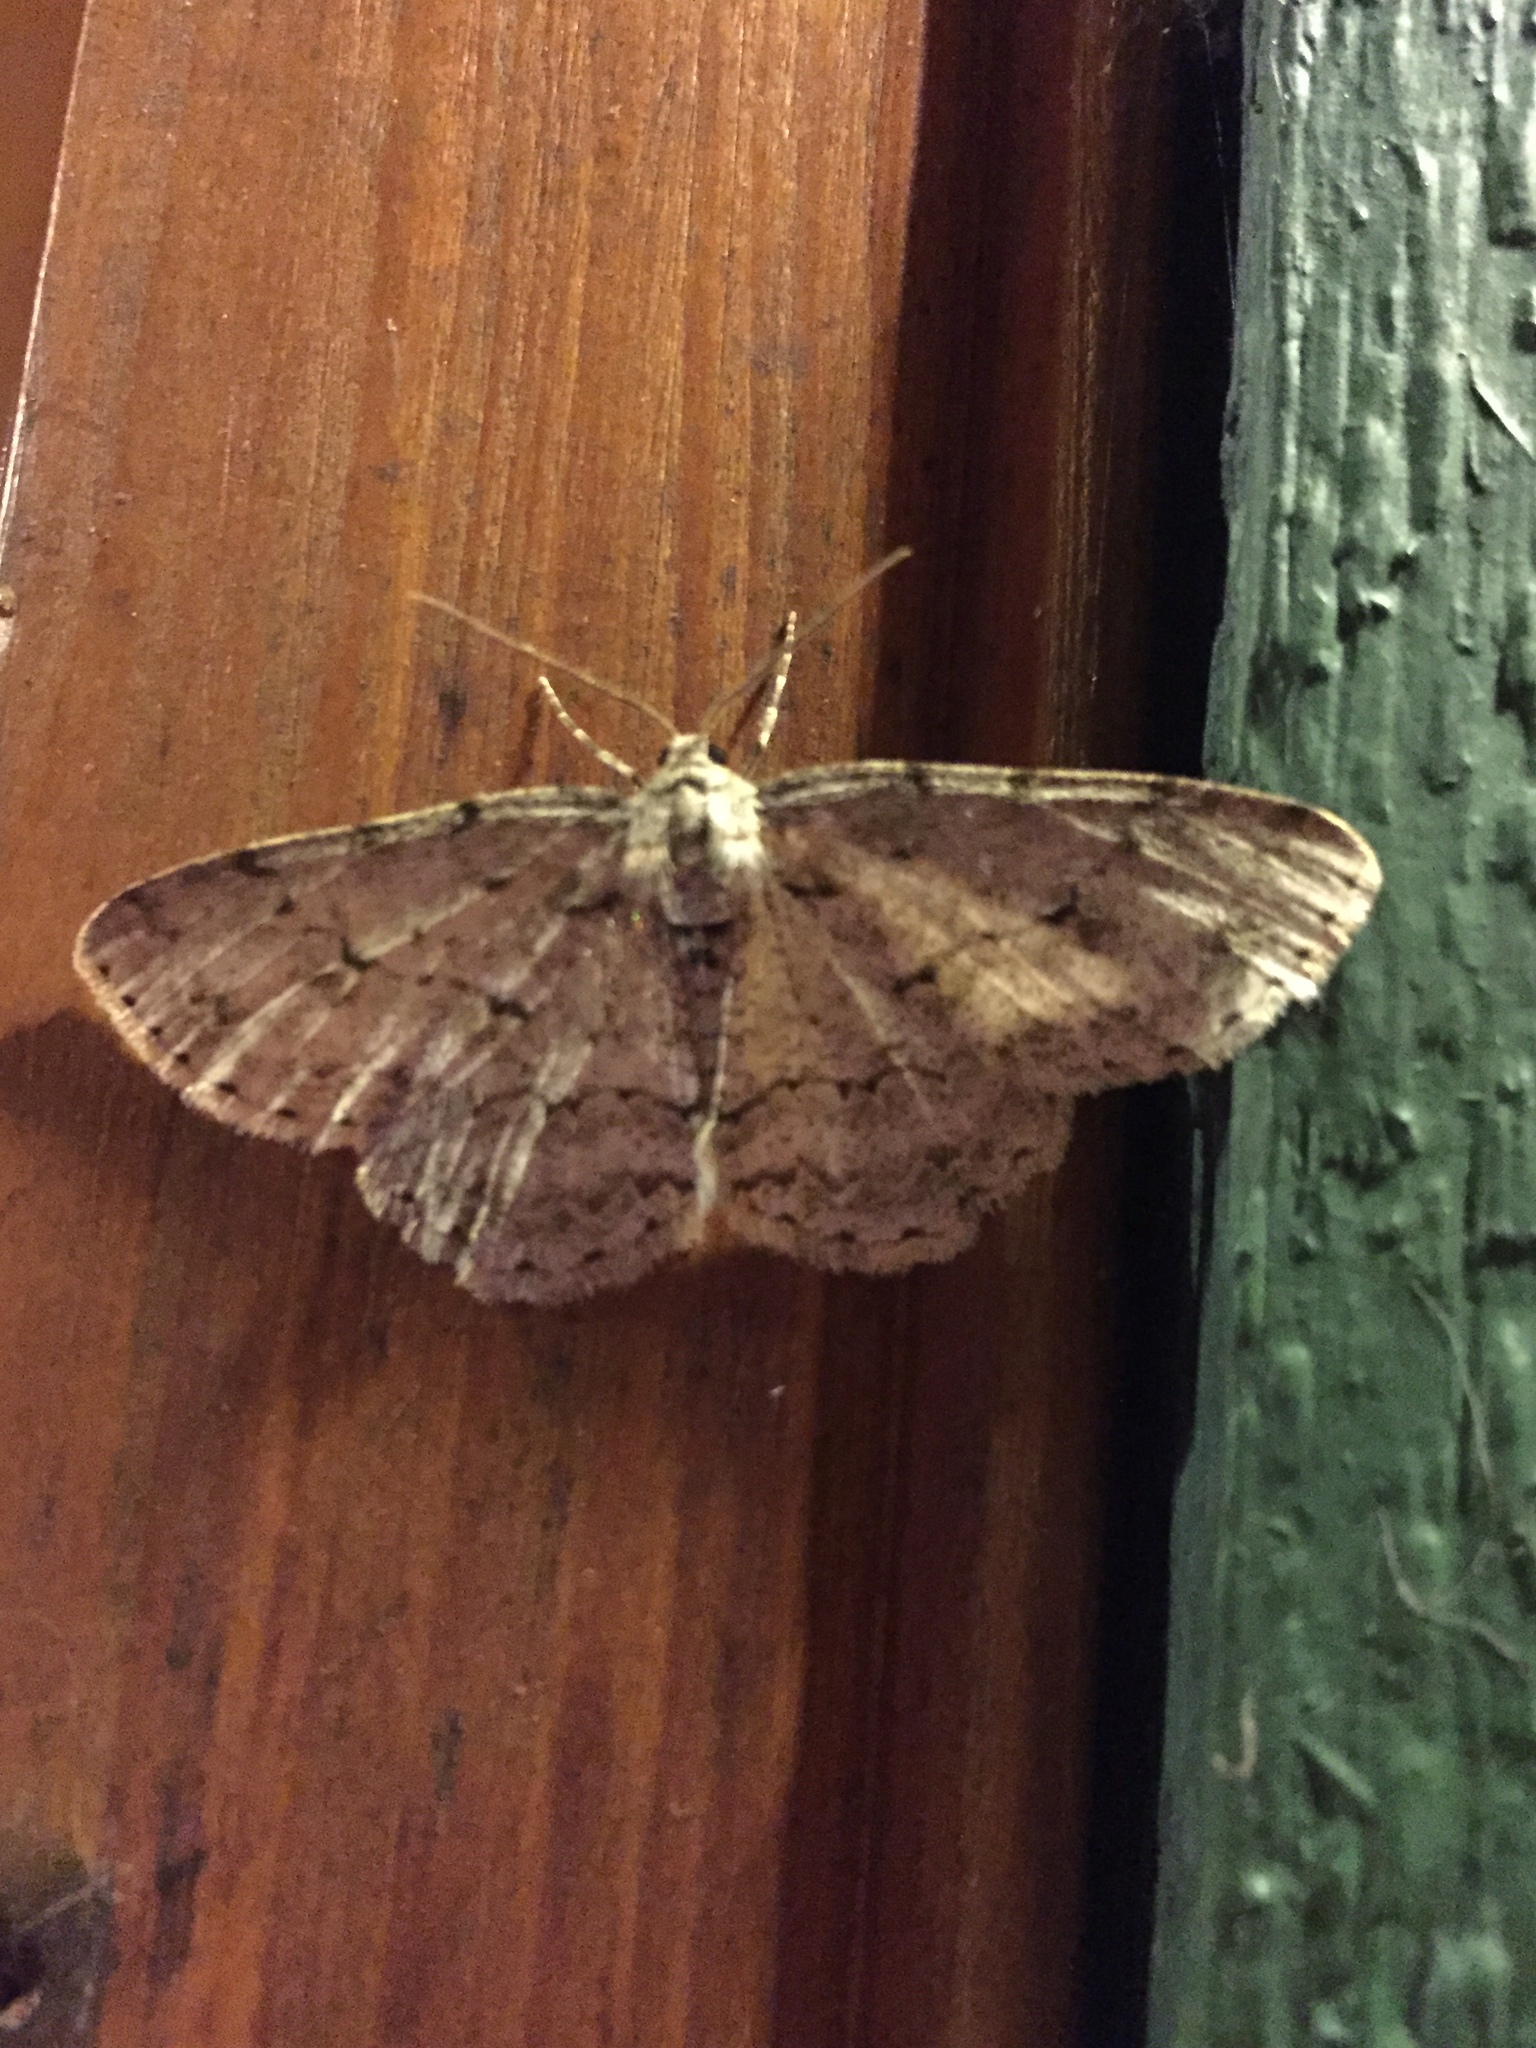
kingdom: Animalia
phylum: Arthropoda
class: Insecta
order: Lepidoptera
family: Geometridae
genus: Ectropis
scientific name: Ectropis crepuscularia
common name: Engrailed
